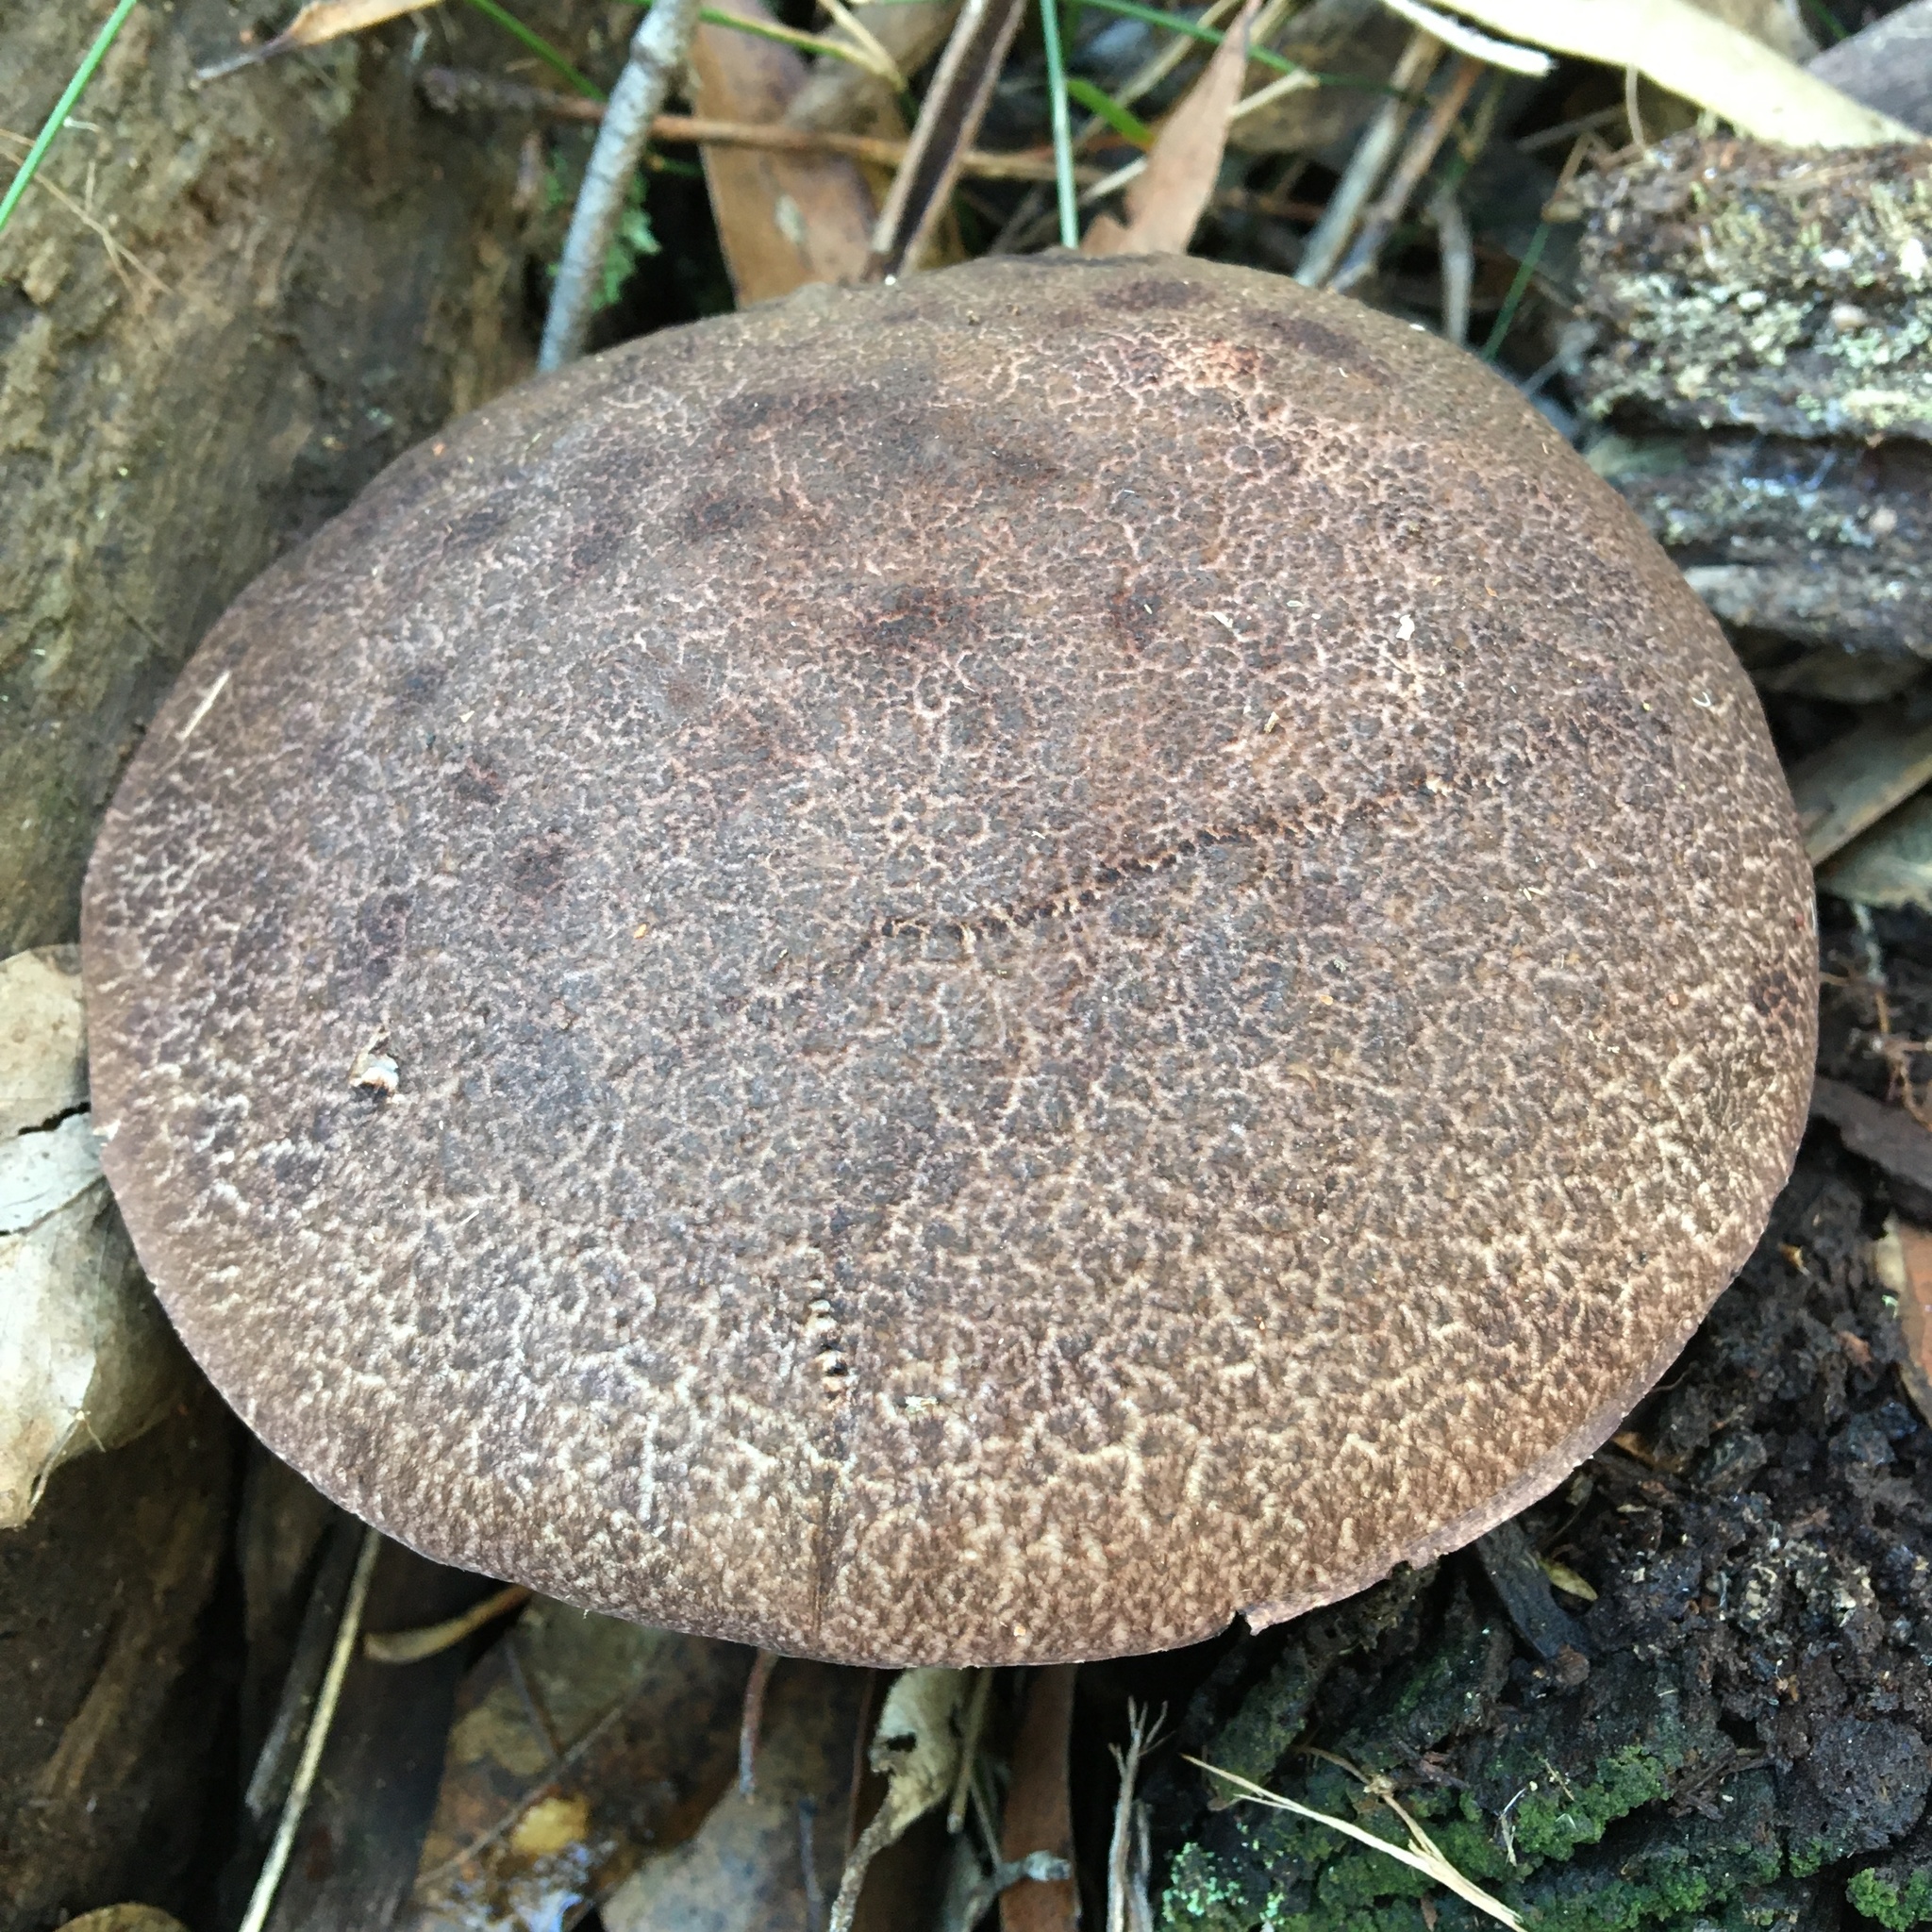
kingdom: Fungi
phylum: Basidiomycota
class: Agaricomycetes
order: Boletales
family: Boletaceae
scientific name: Boletaceae
